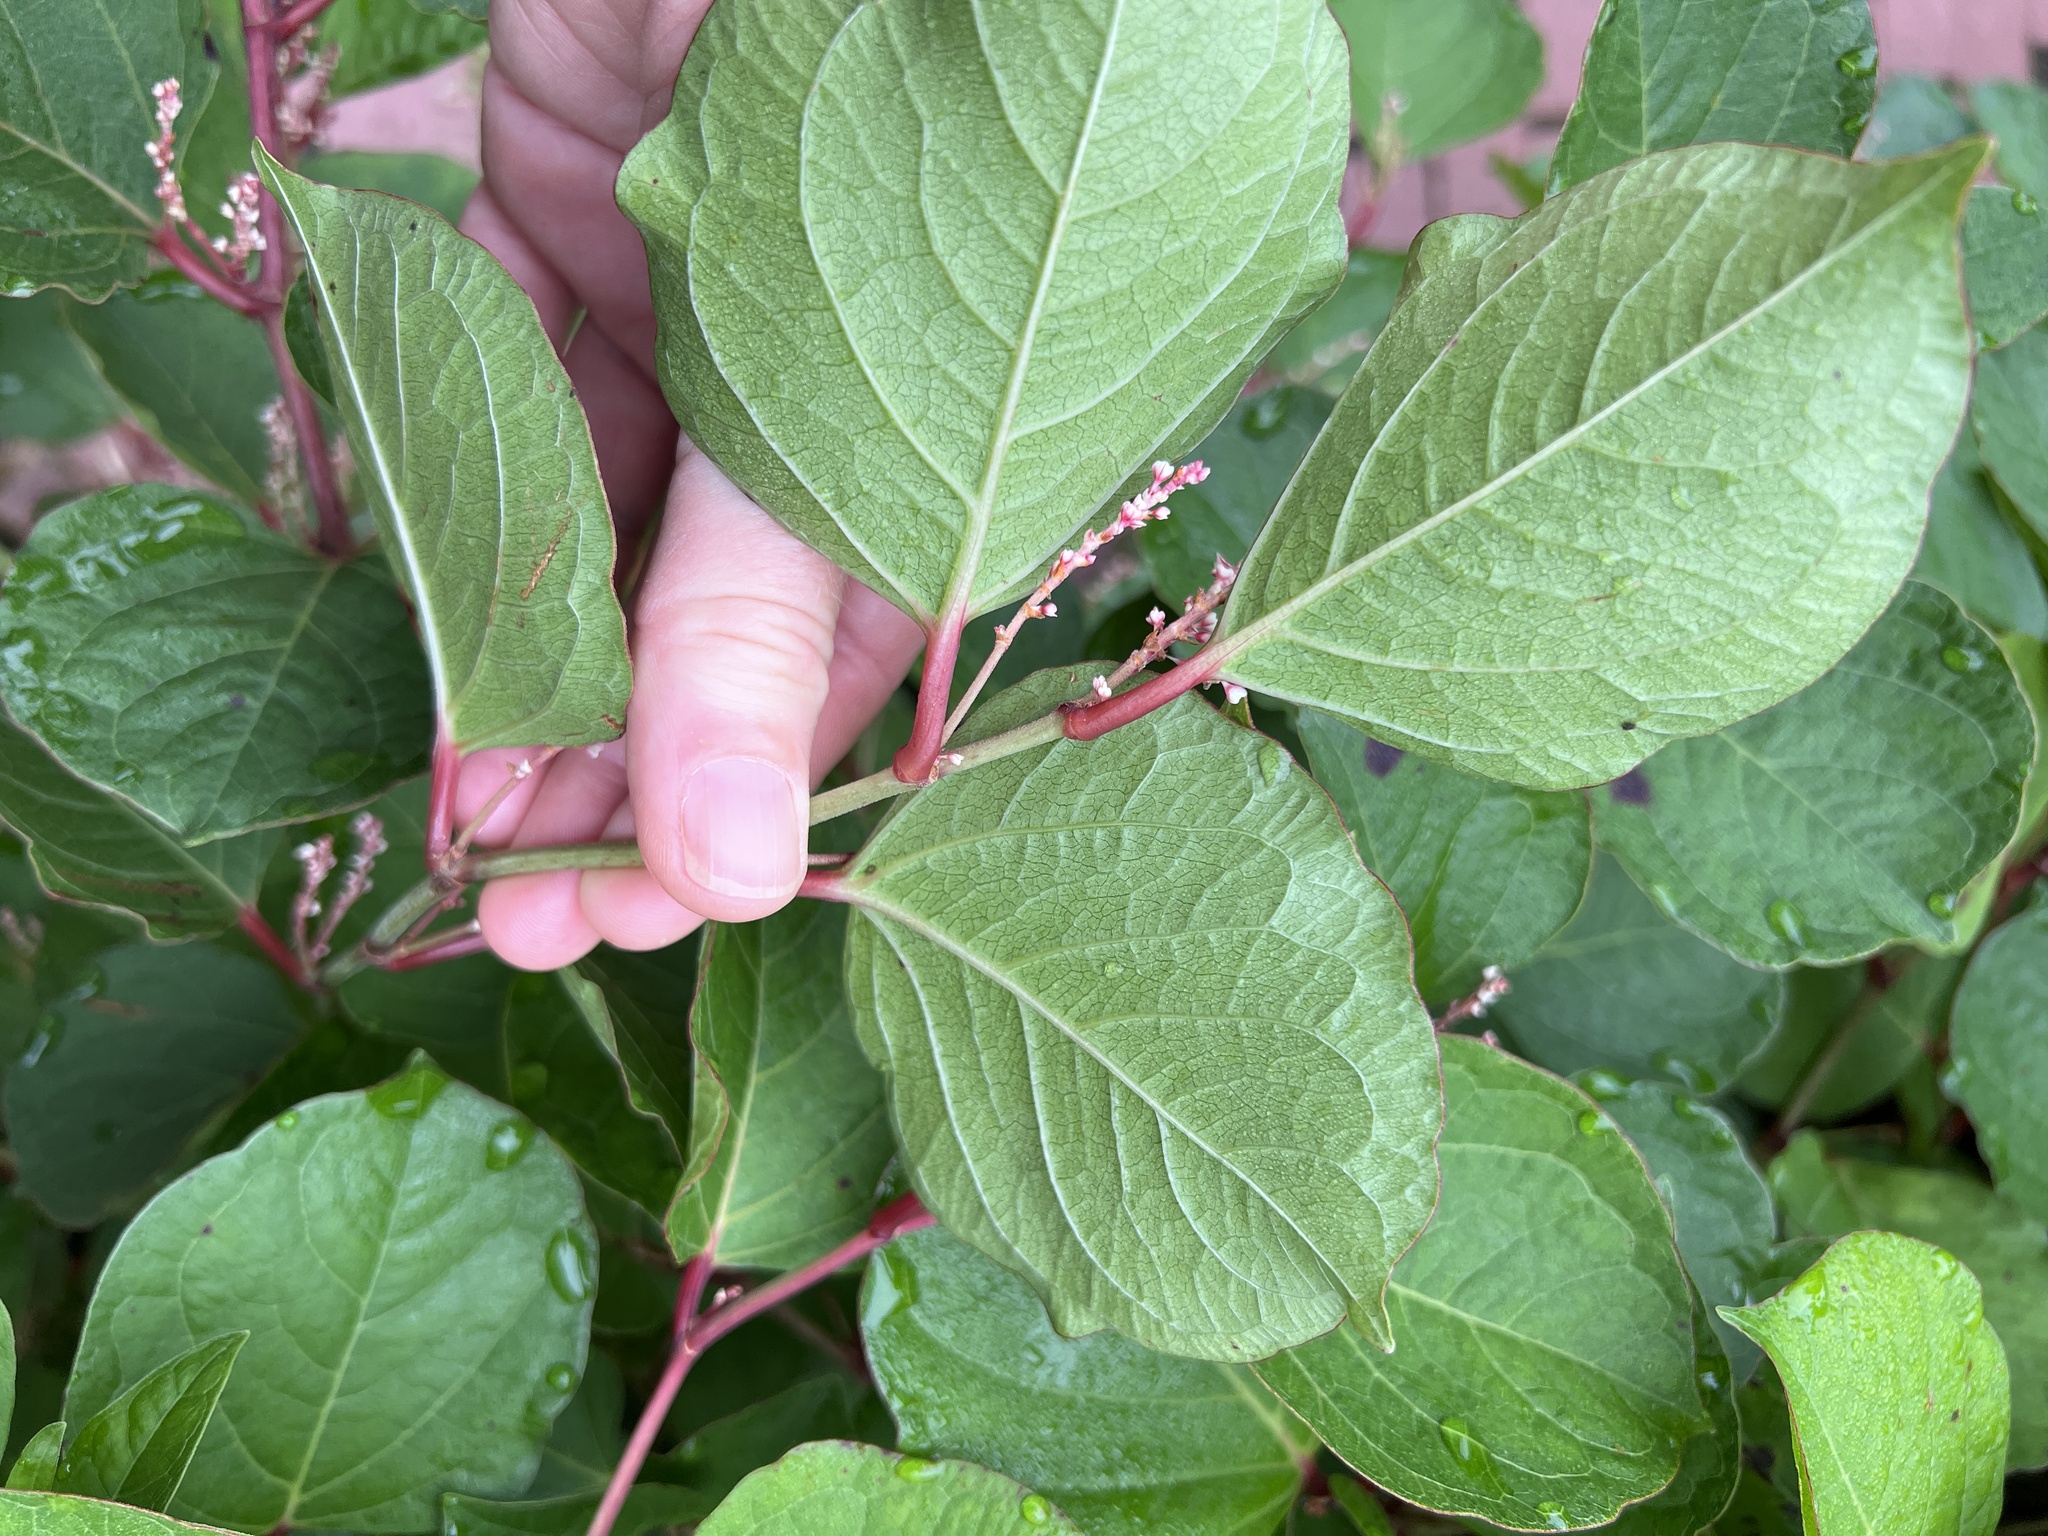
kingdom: Plantae
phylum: Tracheophyta
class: Magnoliopsida
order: Caryophyllales
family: Polygonaceae
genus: Reynoutria
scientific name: Reynoutria japonica
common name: Japanese knotweed
